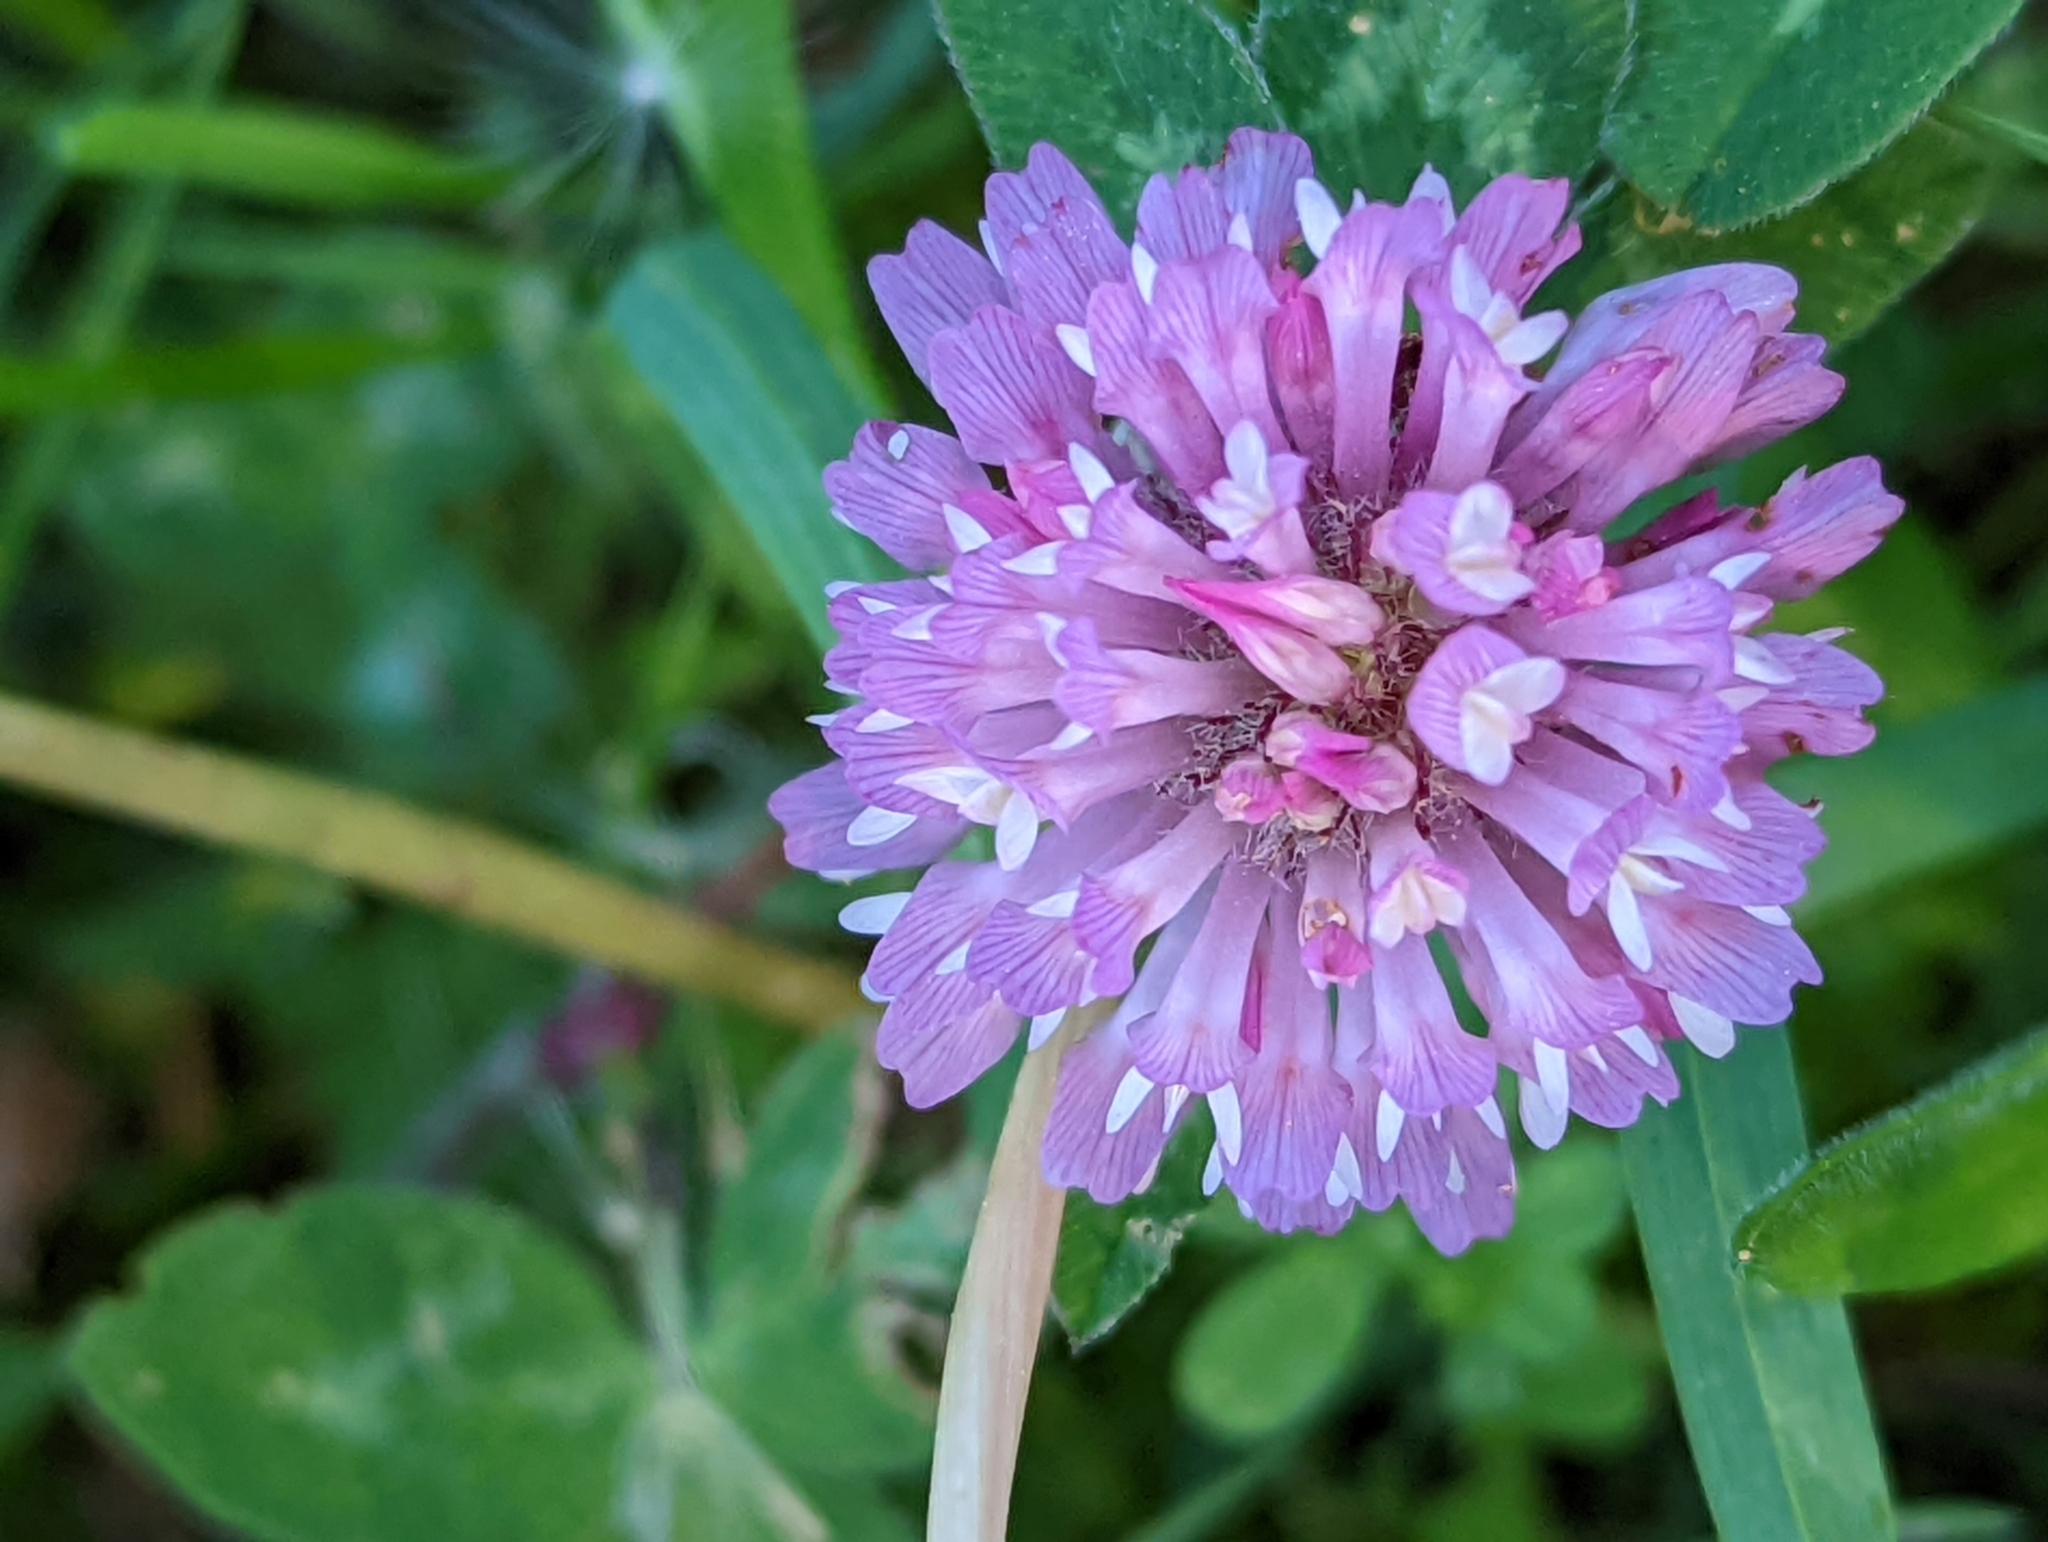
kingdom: Plantae
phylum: Tracheophyta
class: Magnoliopsida
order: Fabales
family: Fabaceae
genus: Trifolium
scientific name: Trifolium pratense
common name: Red clover
